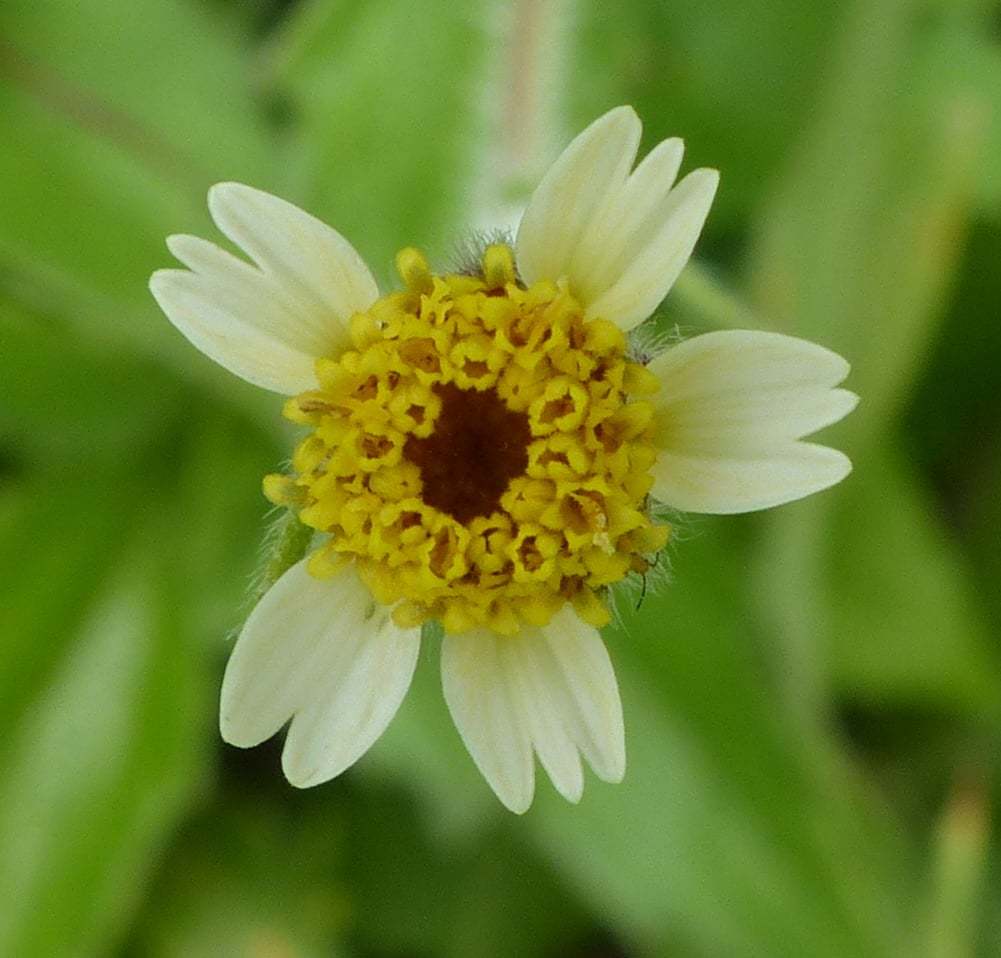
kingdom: Plantae
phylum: Tracheophyta
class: Magnoliopsida
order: Asterales
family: Asteraceae
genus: Tridax
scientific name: Tridax procumbens
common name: Coatbuttons
